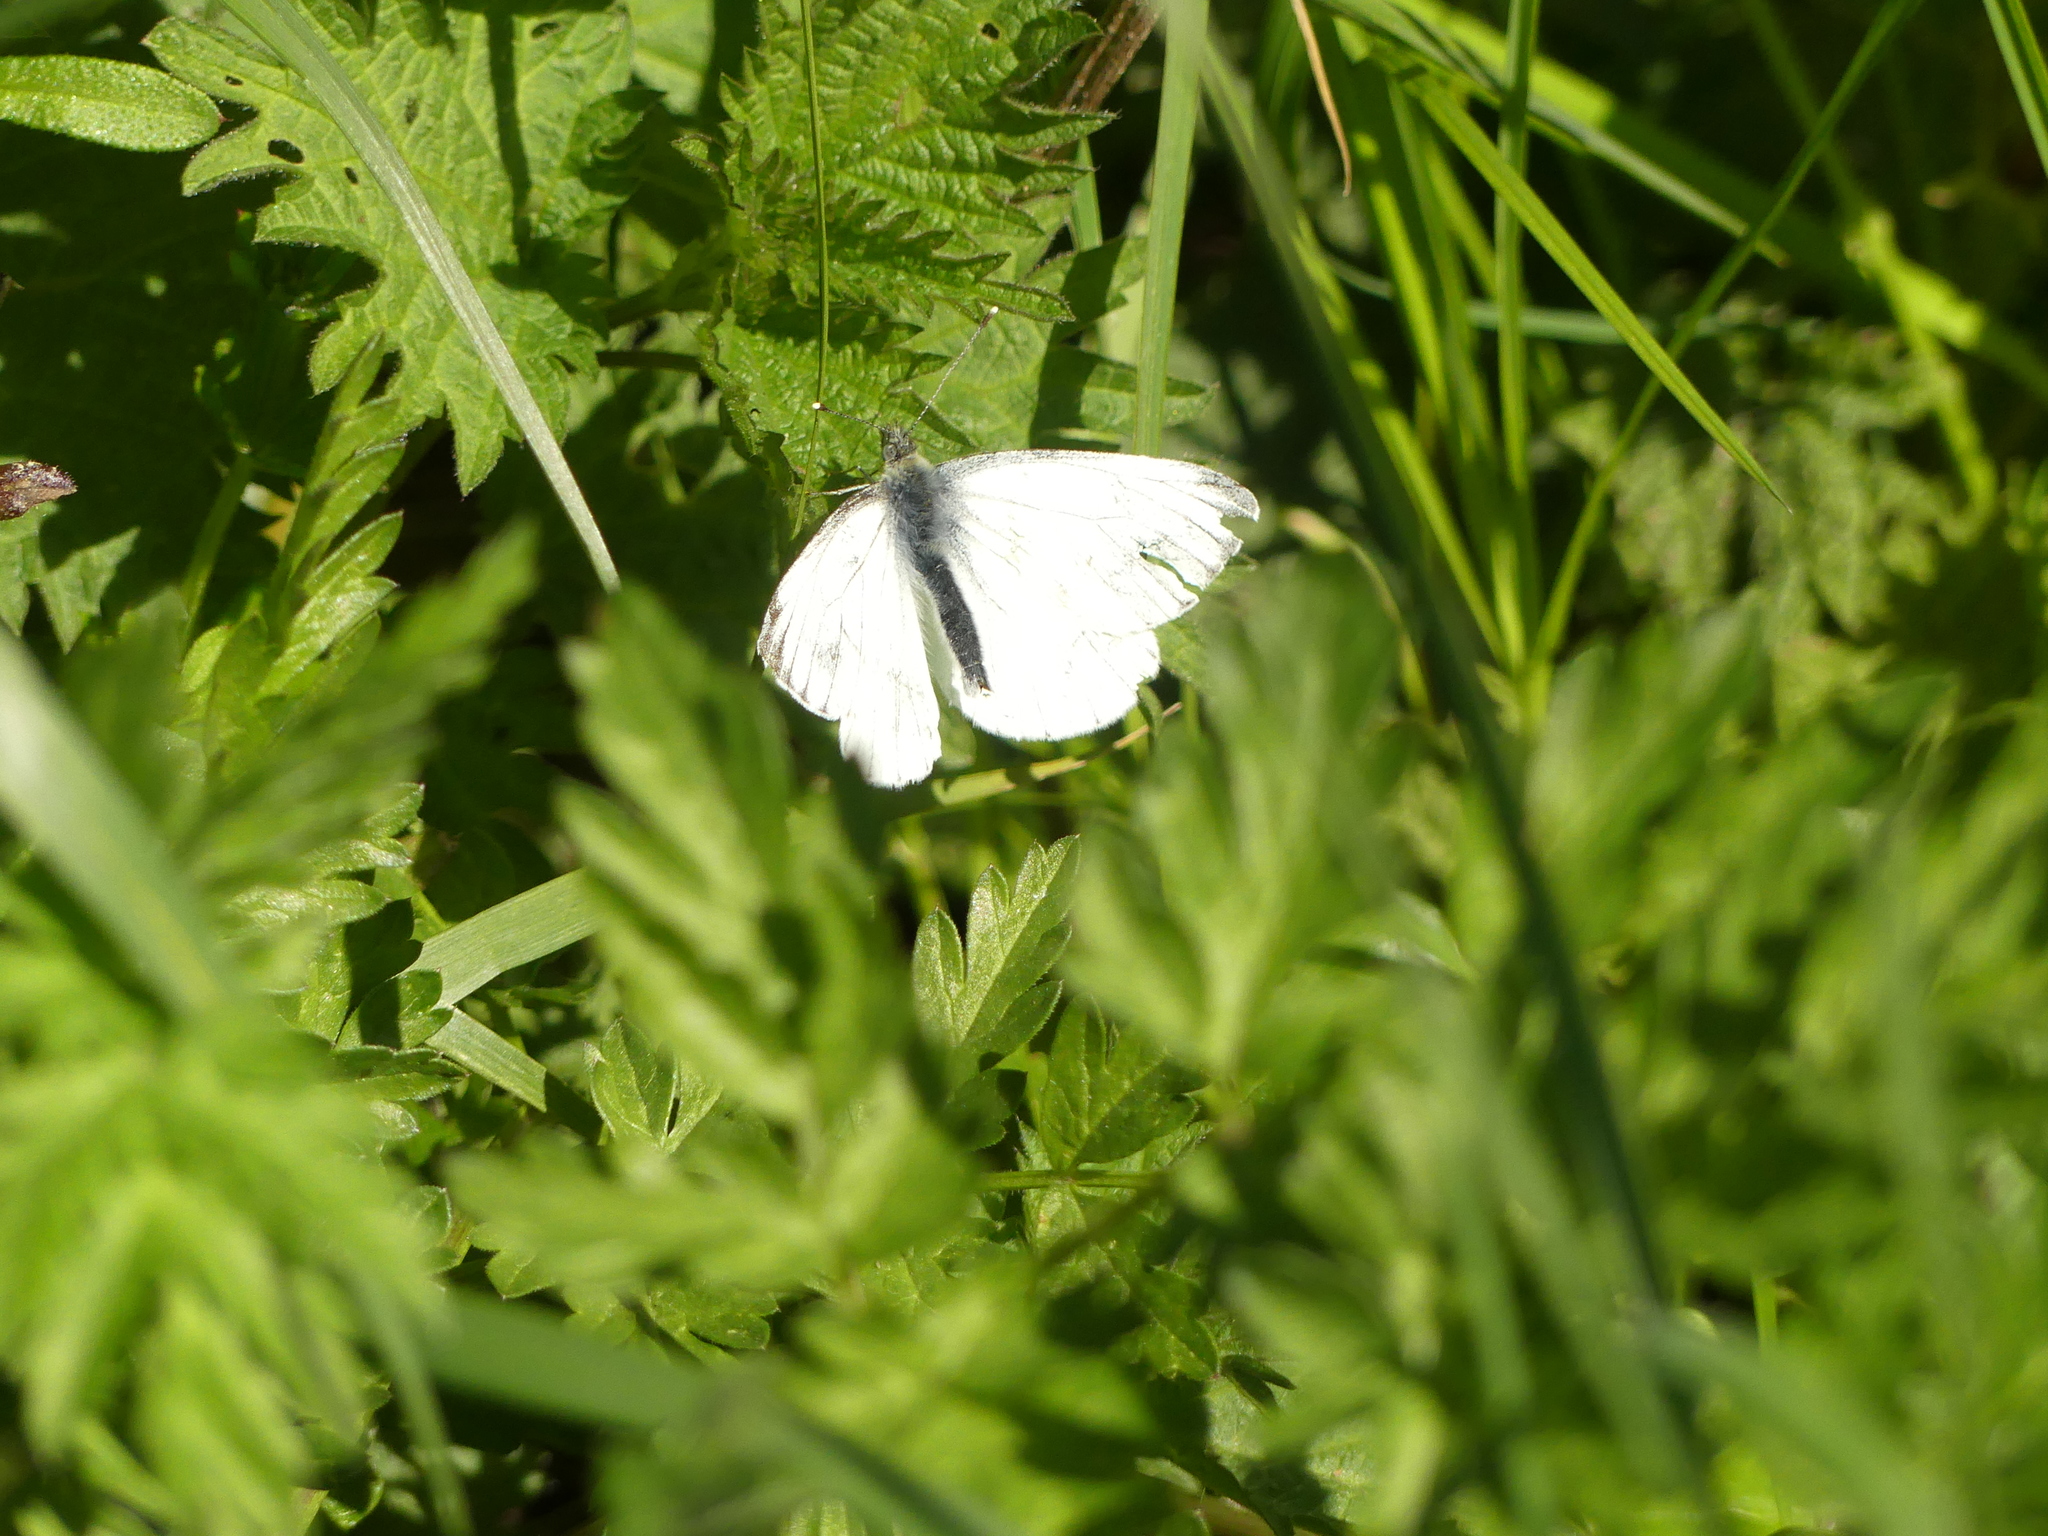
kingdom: Animalia
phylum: Arthropoda
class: Insecta
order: Lepidoptera
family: Pieridae
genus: Pieris
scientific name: Pieris napi
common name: Green-veined white
